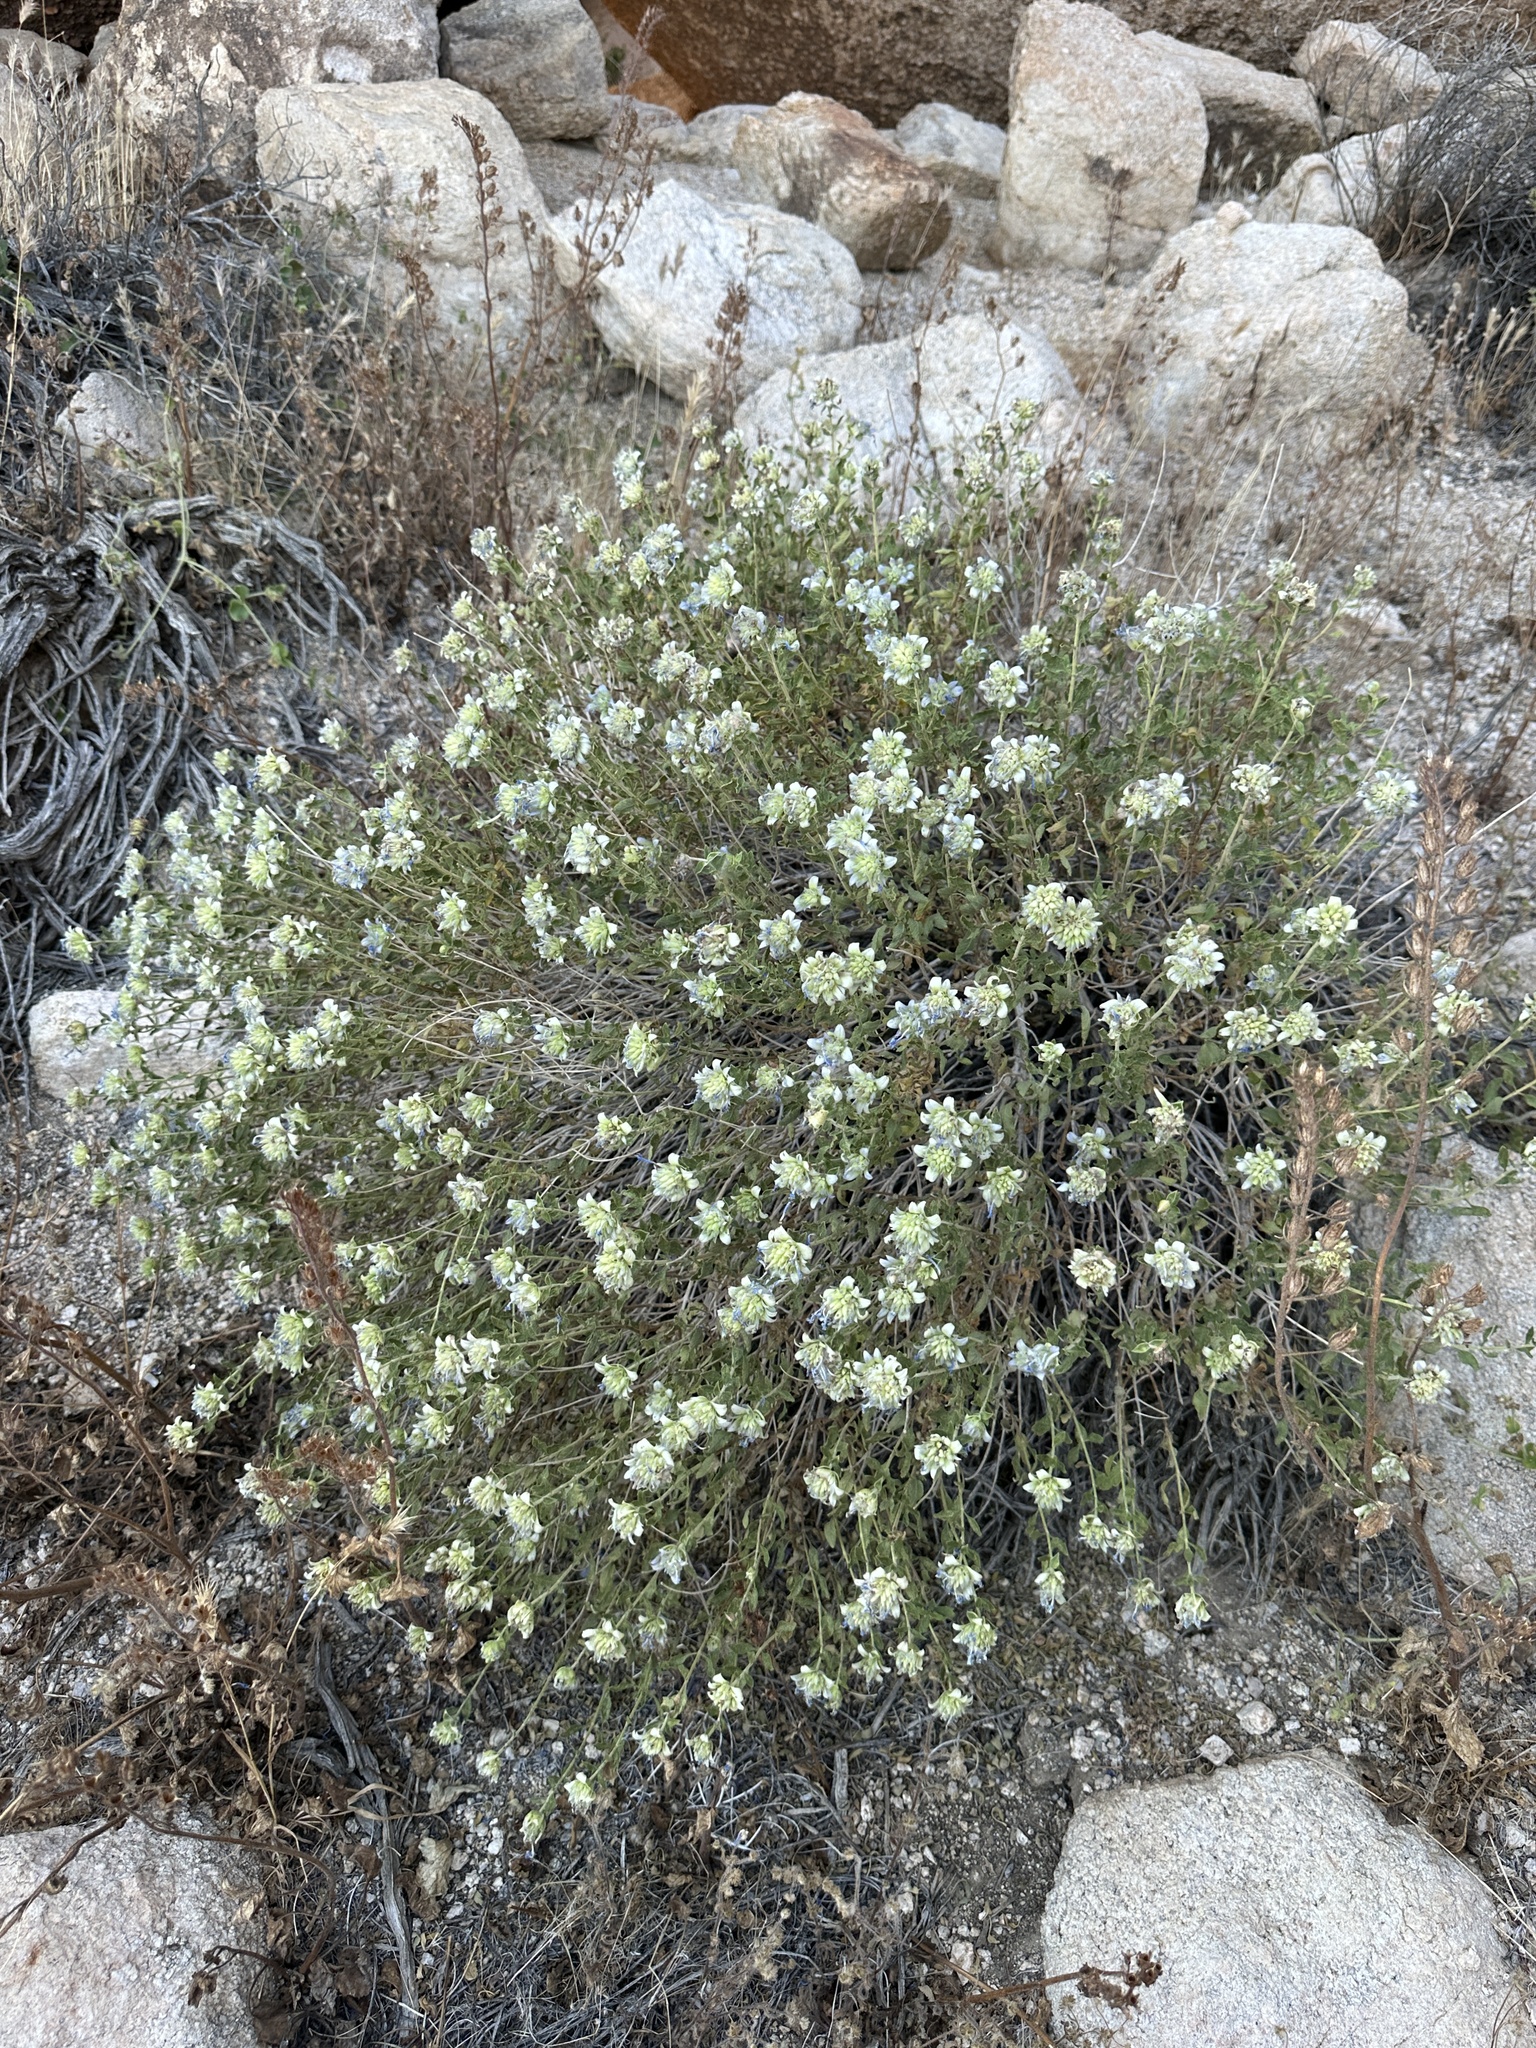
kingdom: Plantae
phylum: Tracheophyta
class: Magnoliopsida
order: Lamiales
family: Lamiaceae
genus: Salvia
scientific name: Salvia mohavensis
